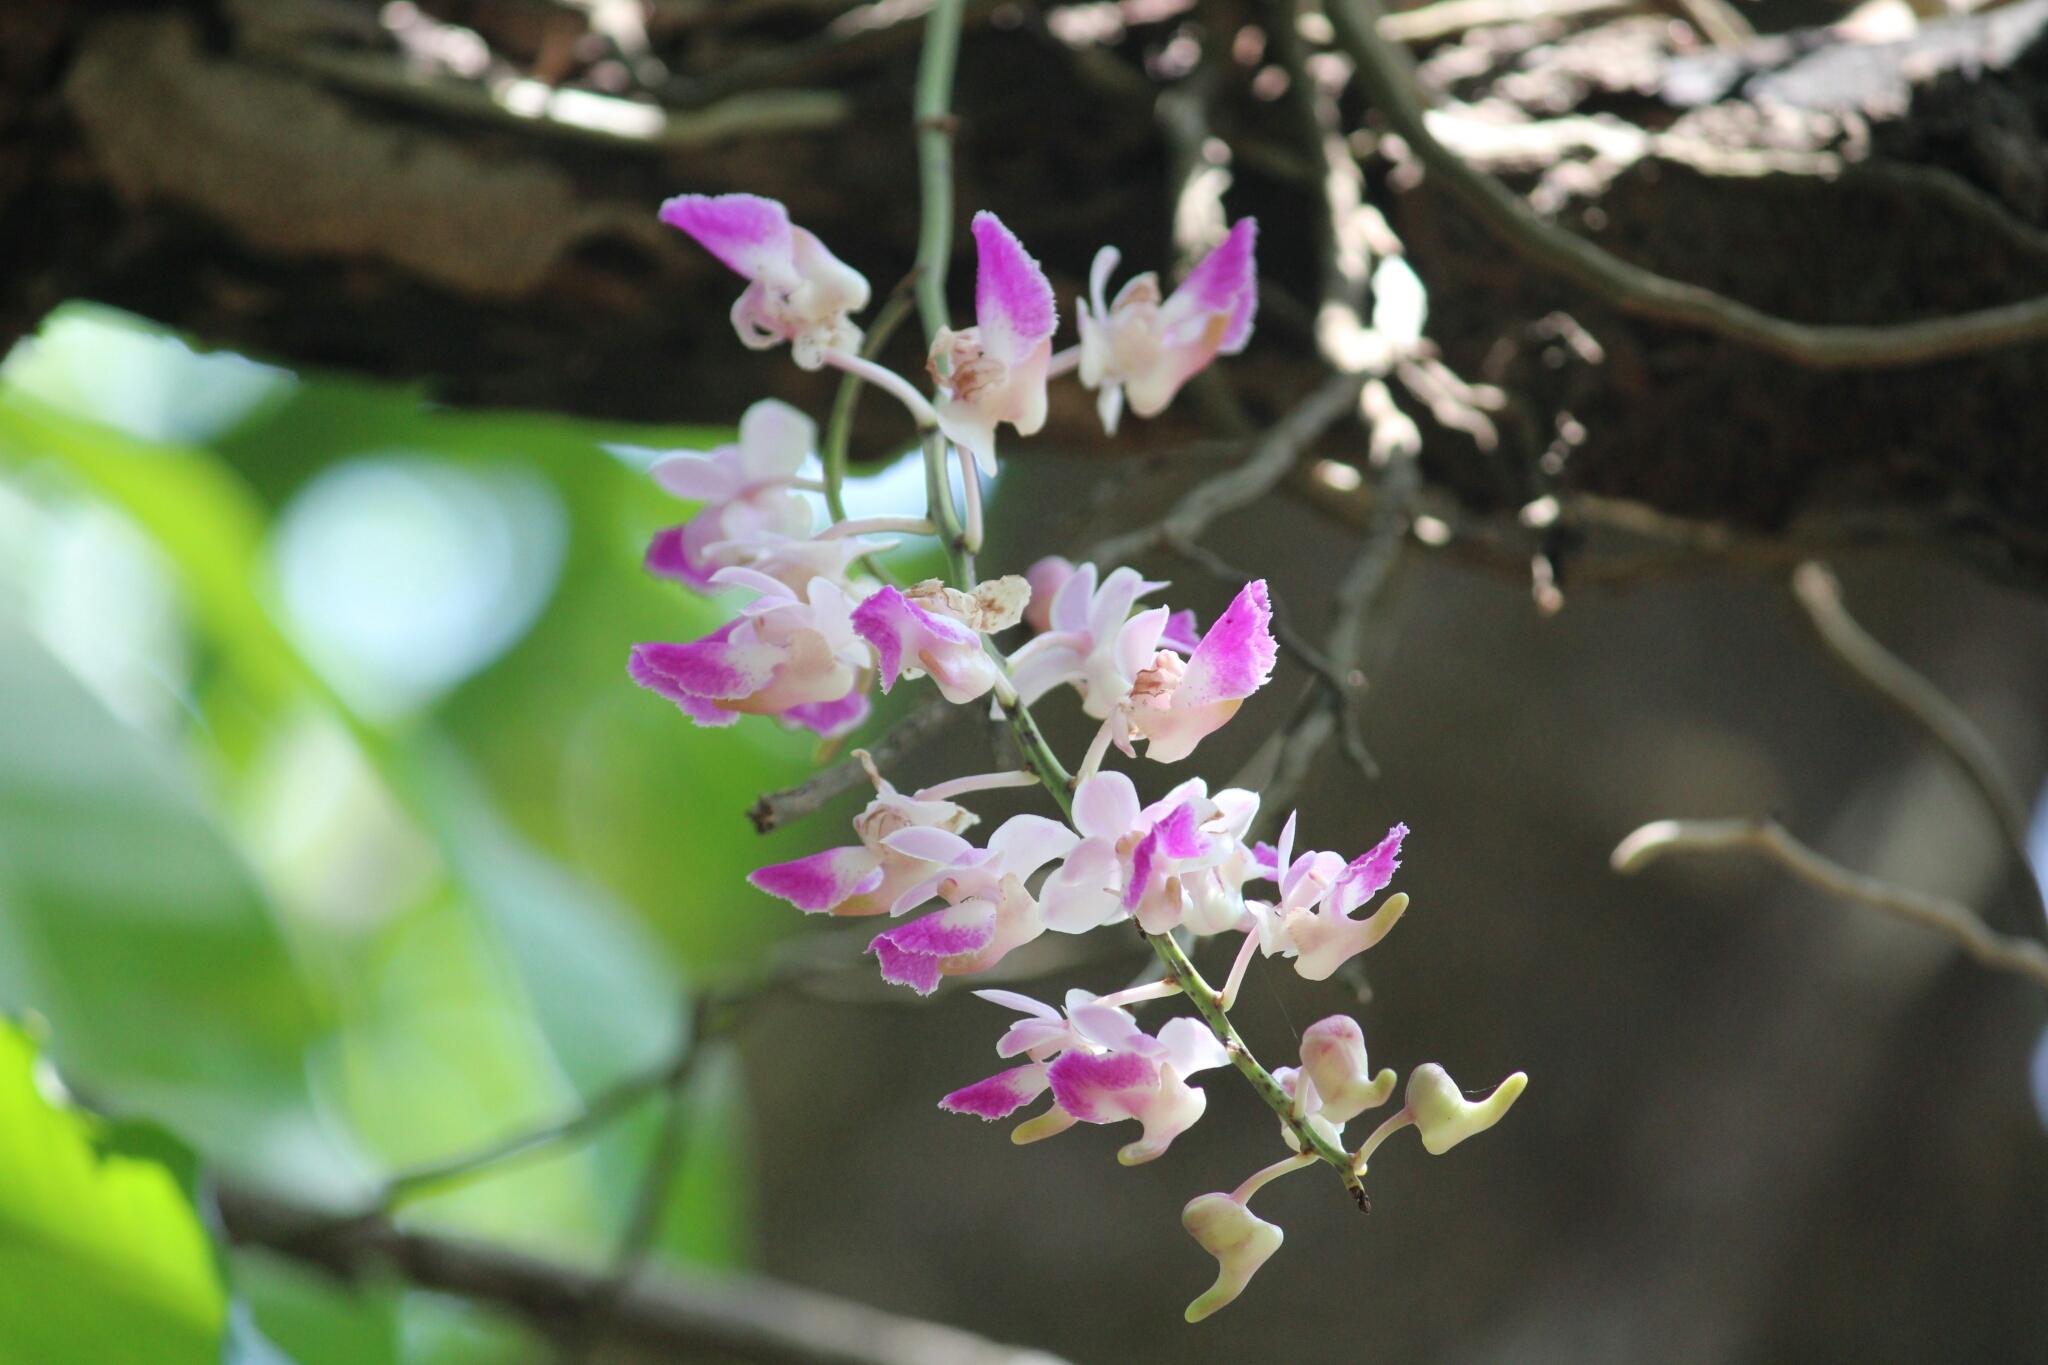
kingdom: Plantae
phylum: Tracheophyta
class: Liliopsida
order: Asparagales
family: Orchidaceae
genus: Aerides
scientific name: Aerides crispa
